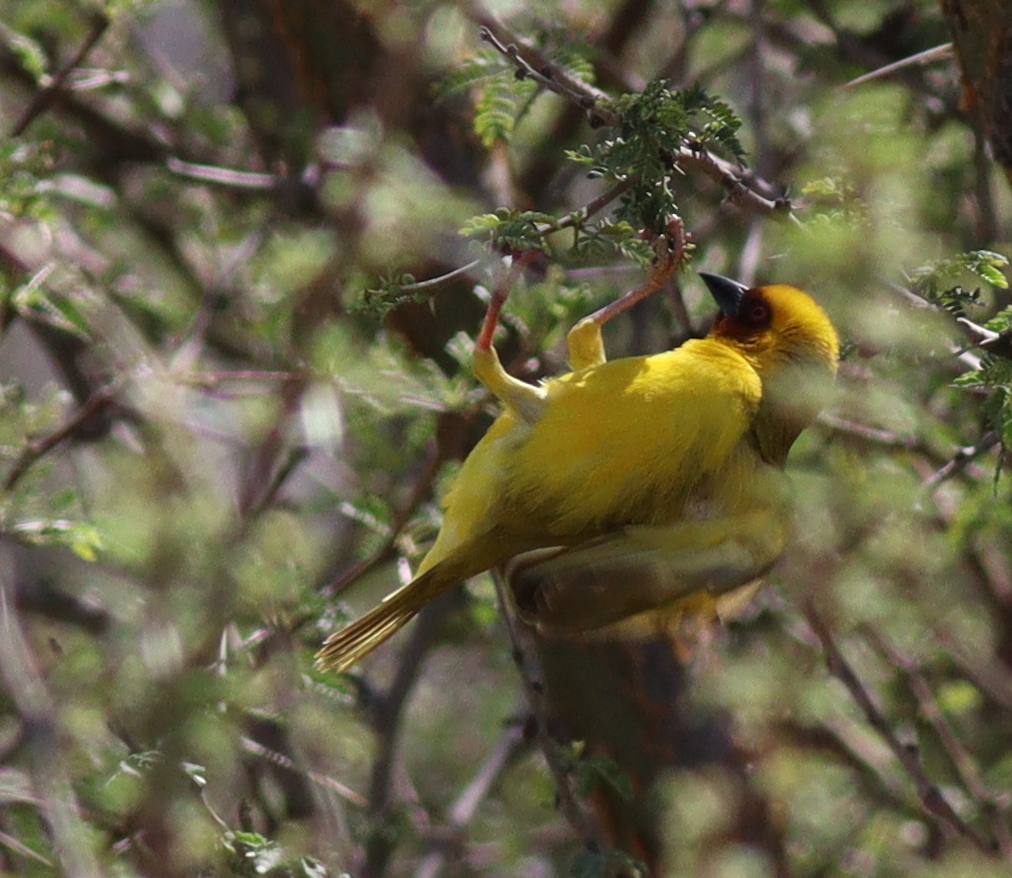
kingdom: Animalia
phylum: Chordata
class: Aves
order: Passeriformes
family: Ploceidae
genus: Ploceus
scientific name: Ploceus galbula
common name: Rüppell's weaver
